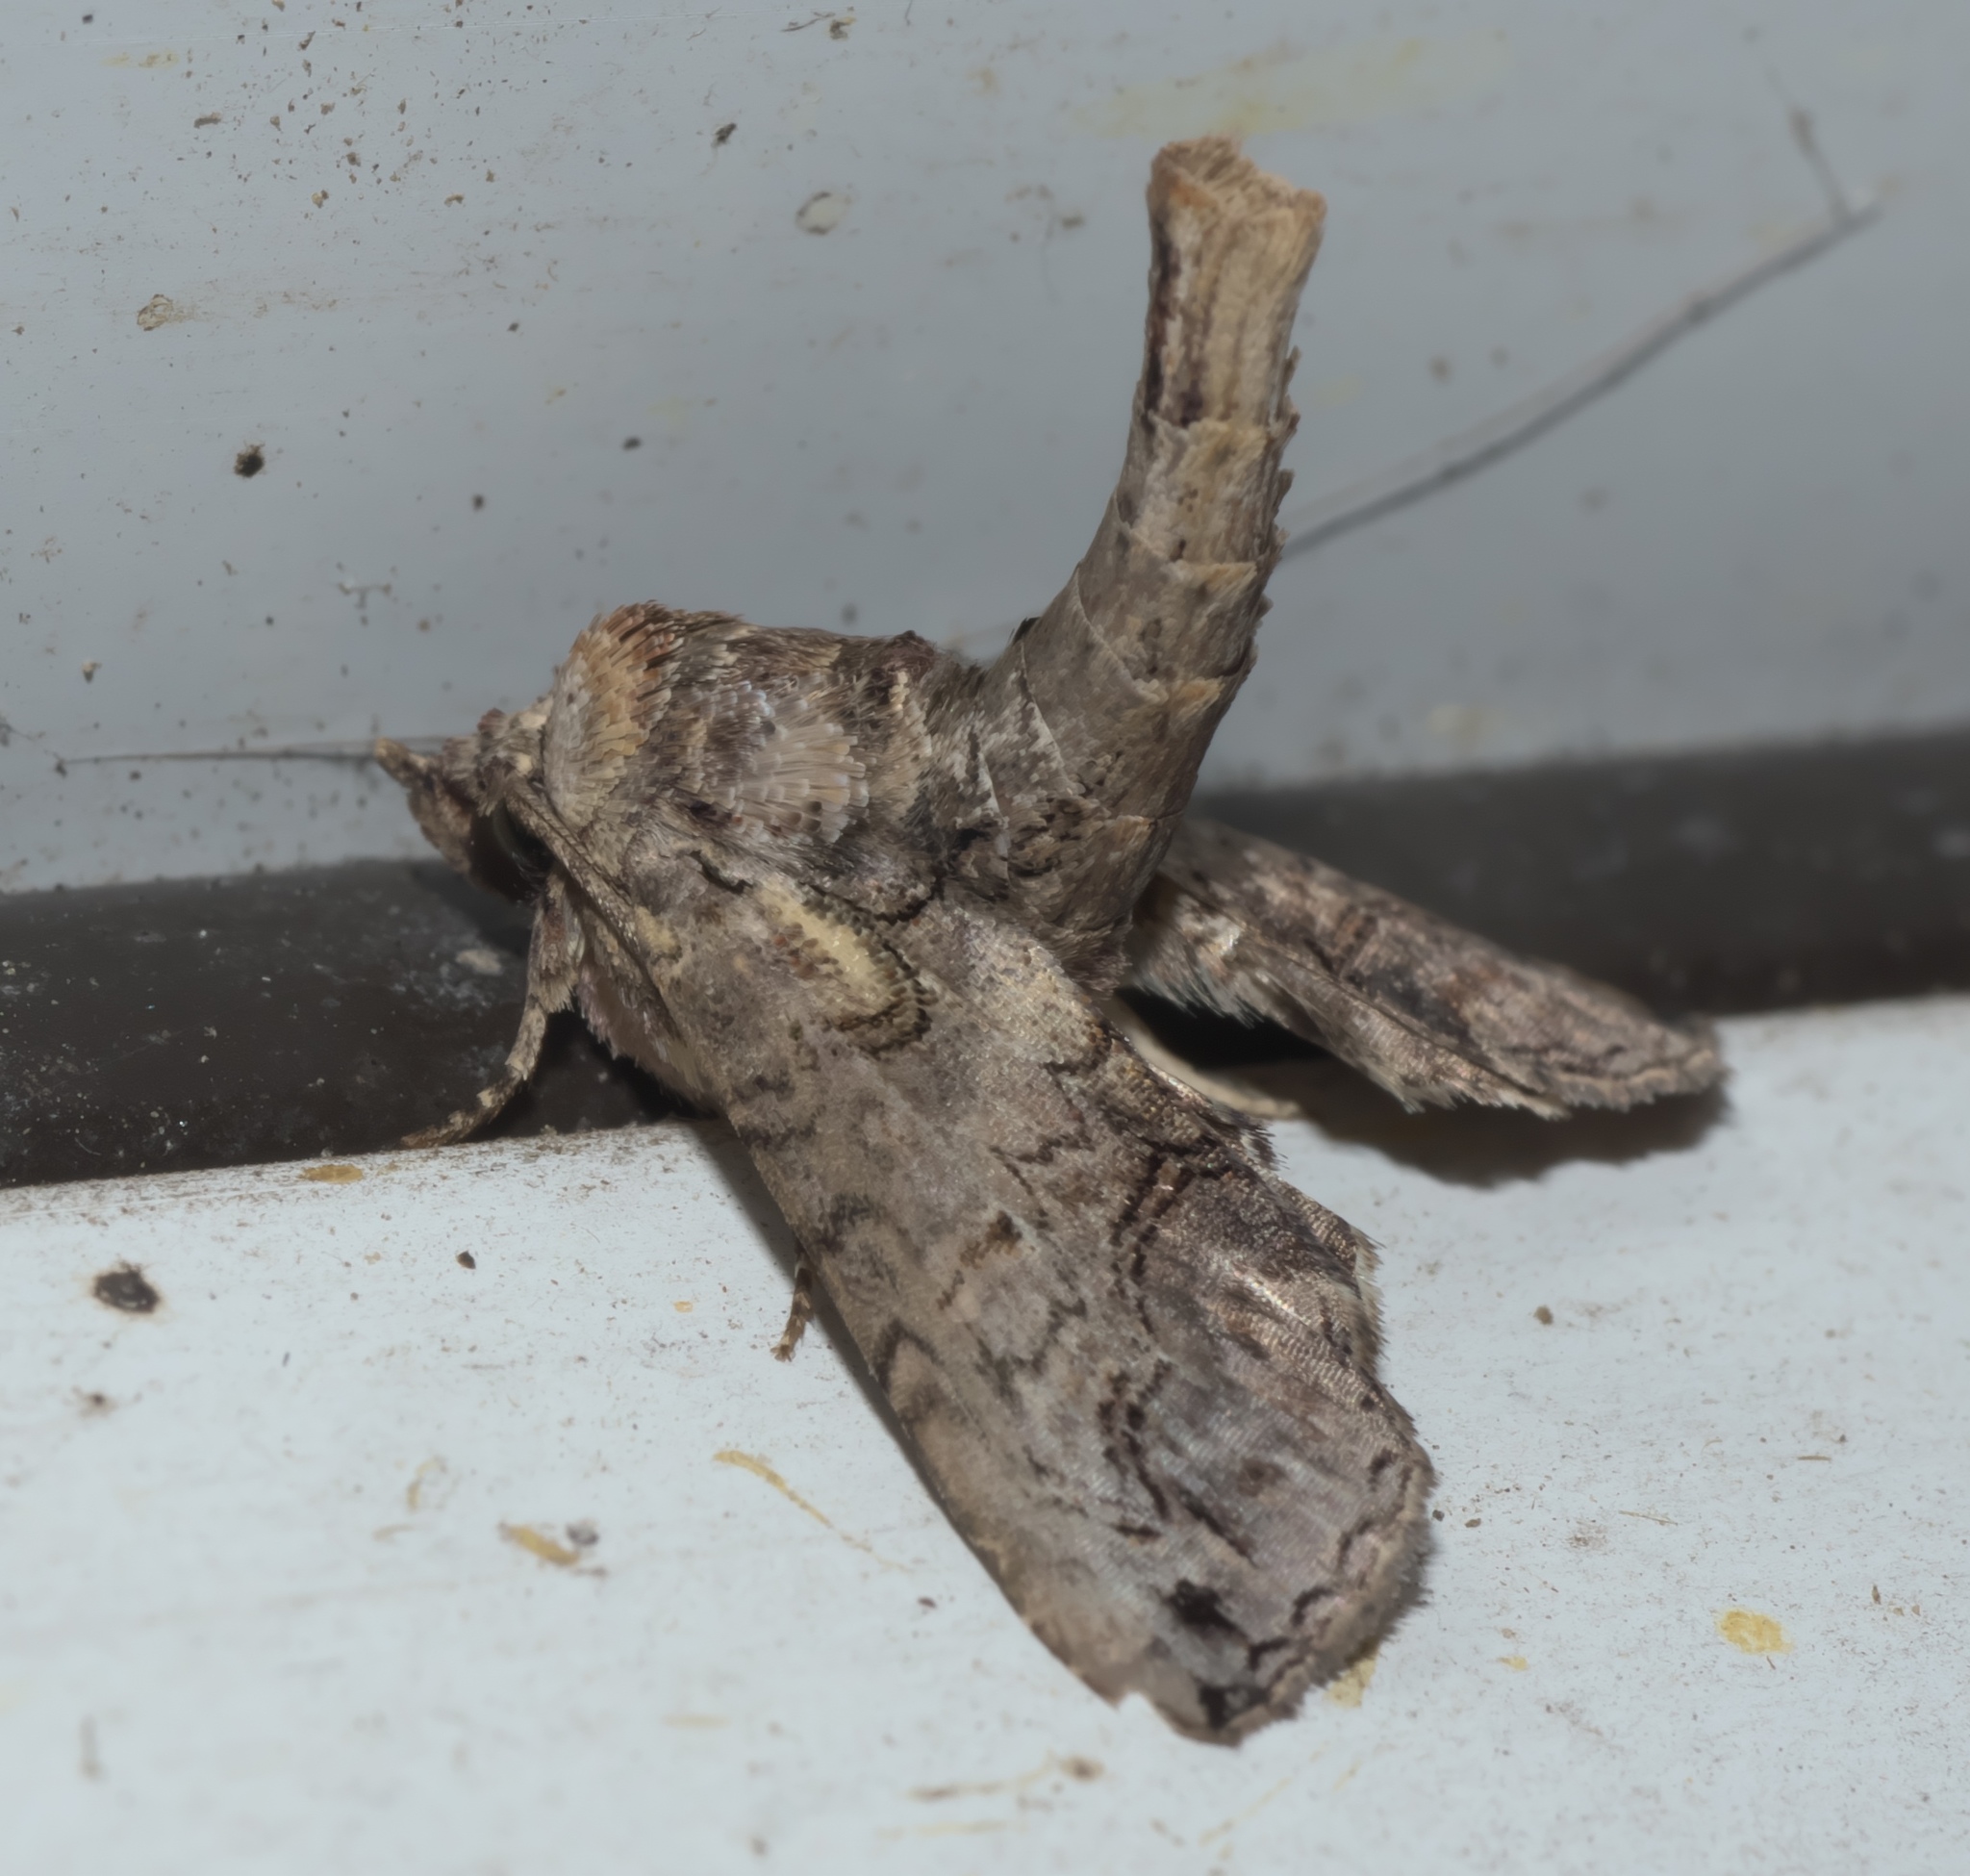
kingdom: Animalia
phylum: Arthropoda
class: Insecta
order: Lepidoptera
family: Euteliidae
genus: Paectes
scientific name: Paectes abrostoloides
